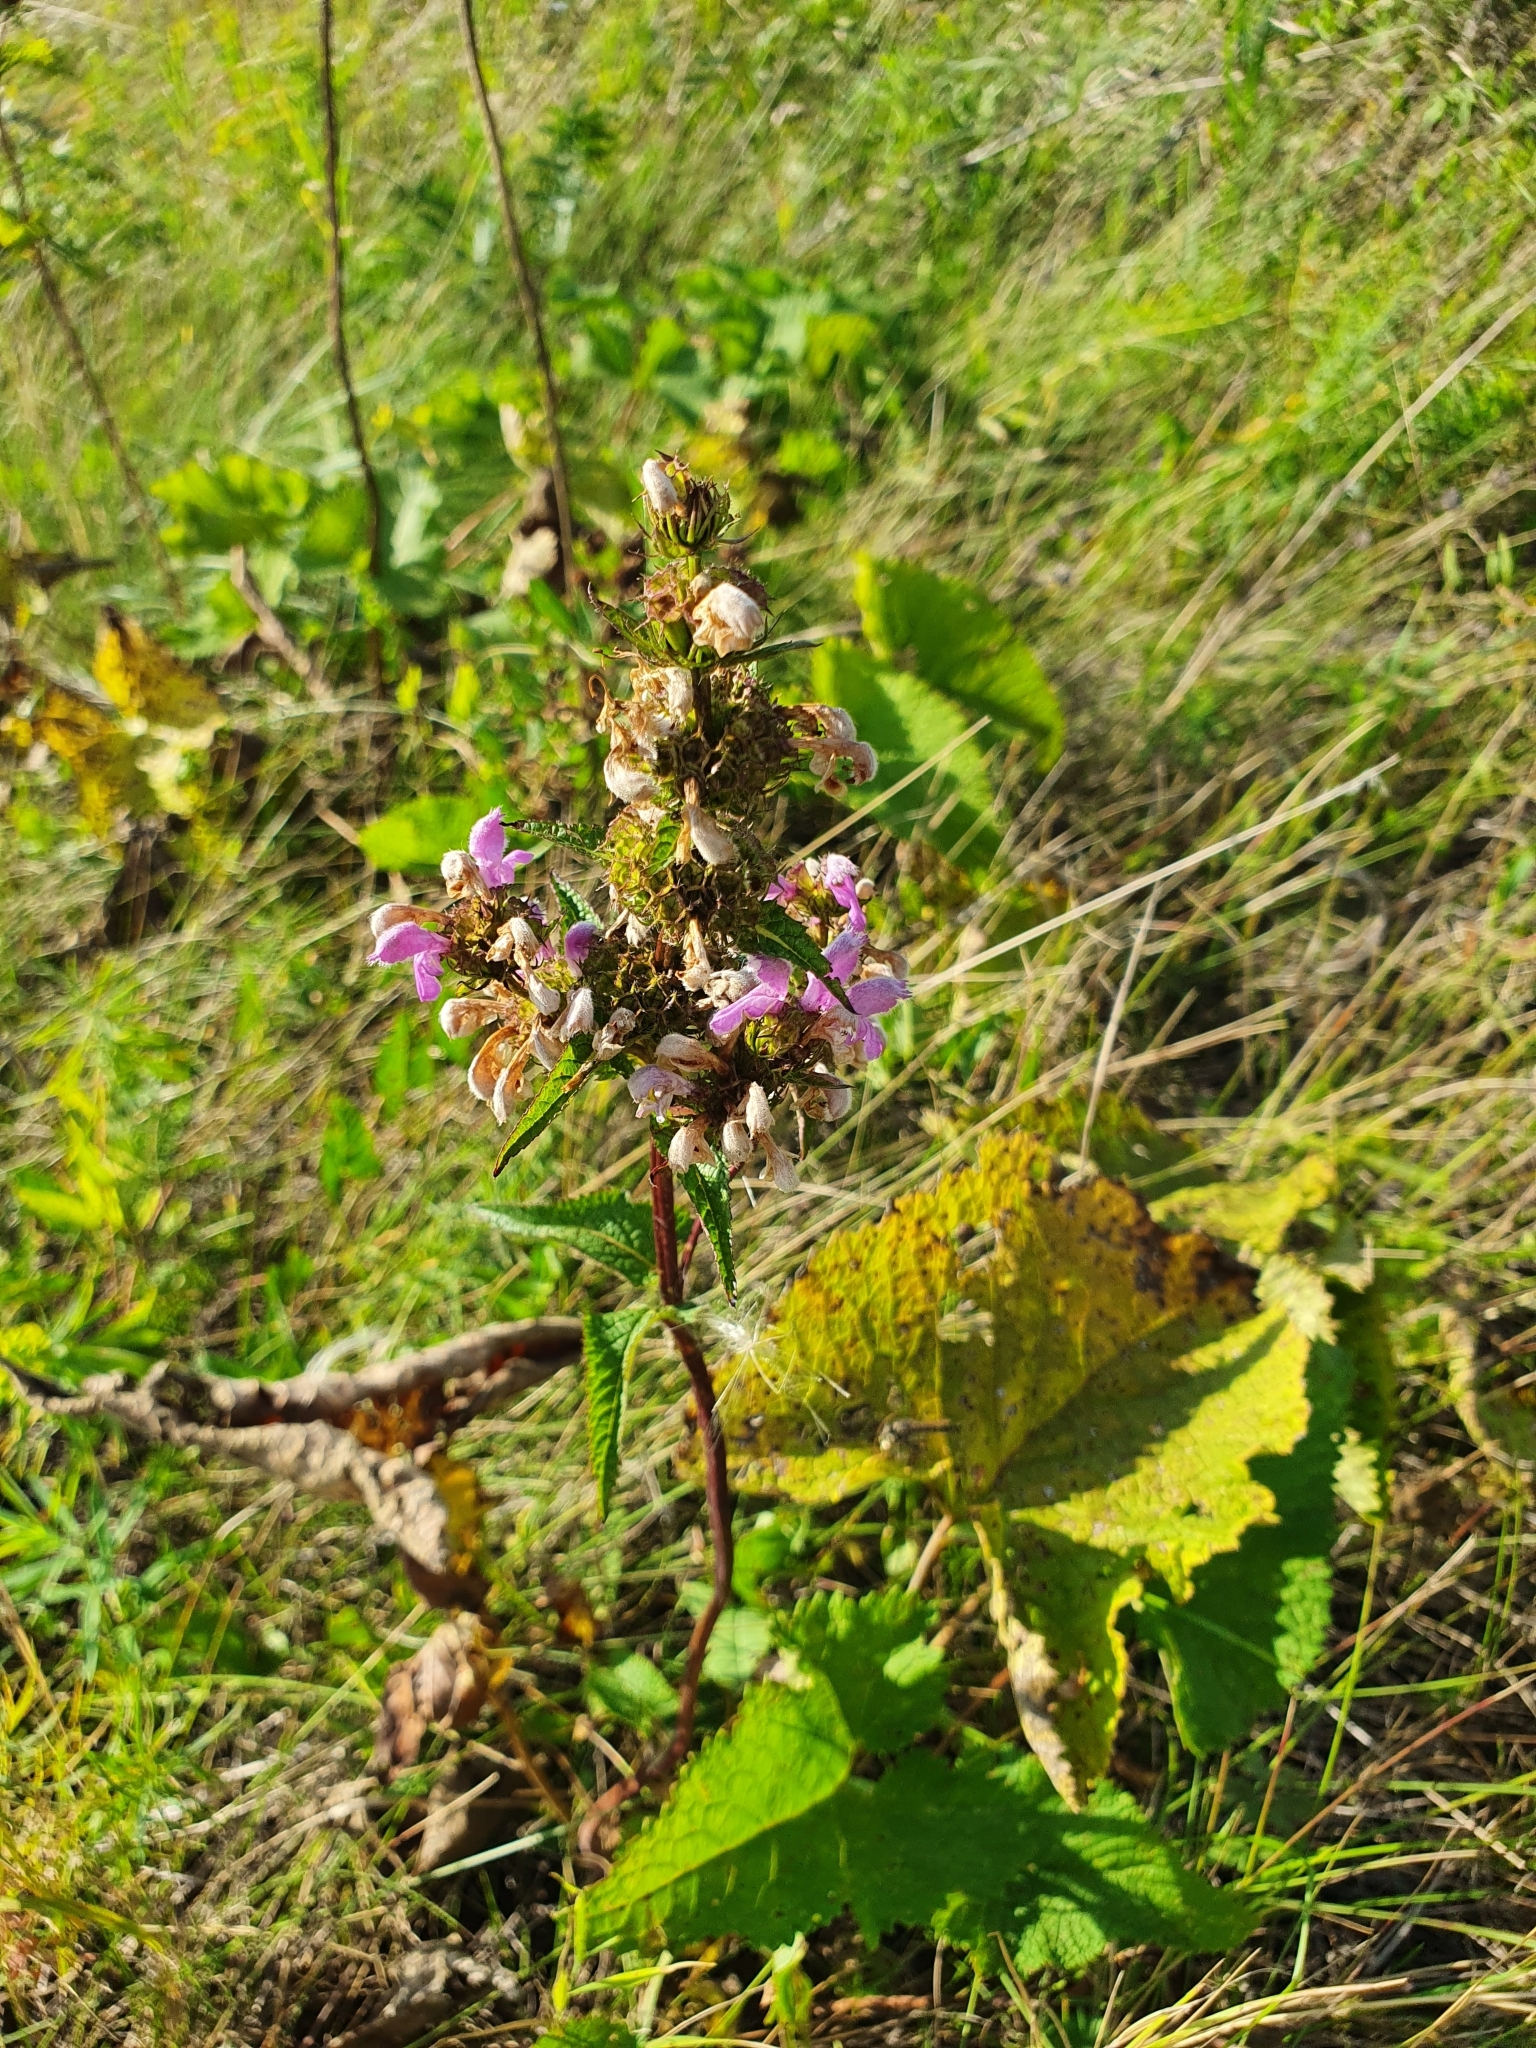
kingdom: Plantae
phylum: Tracheophyta
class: Magnoliopsida
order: Lamiales
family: Lamiaceae
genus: Phlomoides
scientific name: Phlomoides tuberosa
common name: Tuberous jerusalem sage
